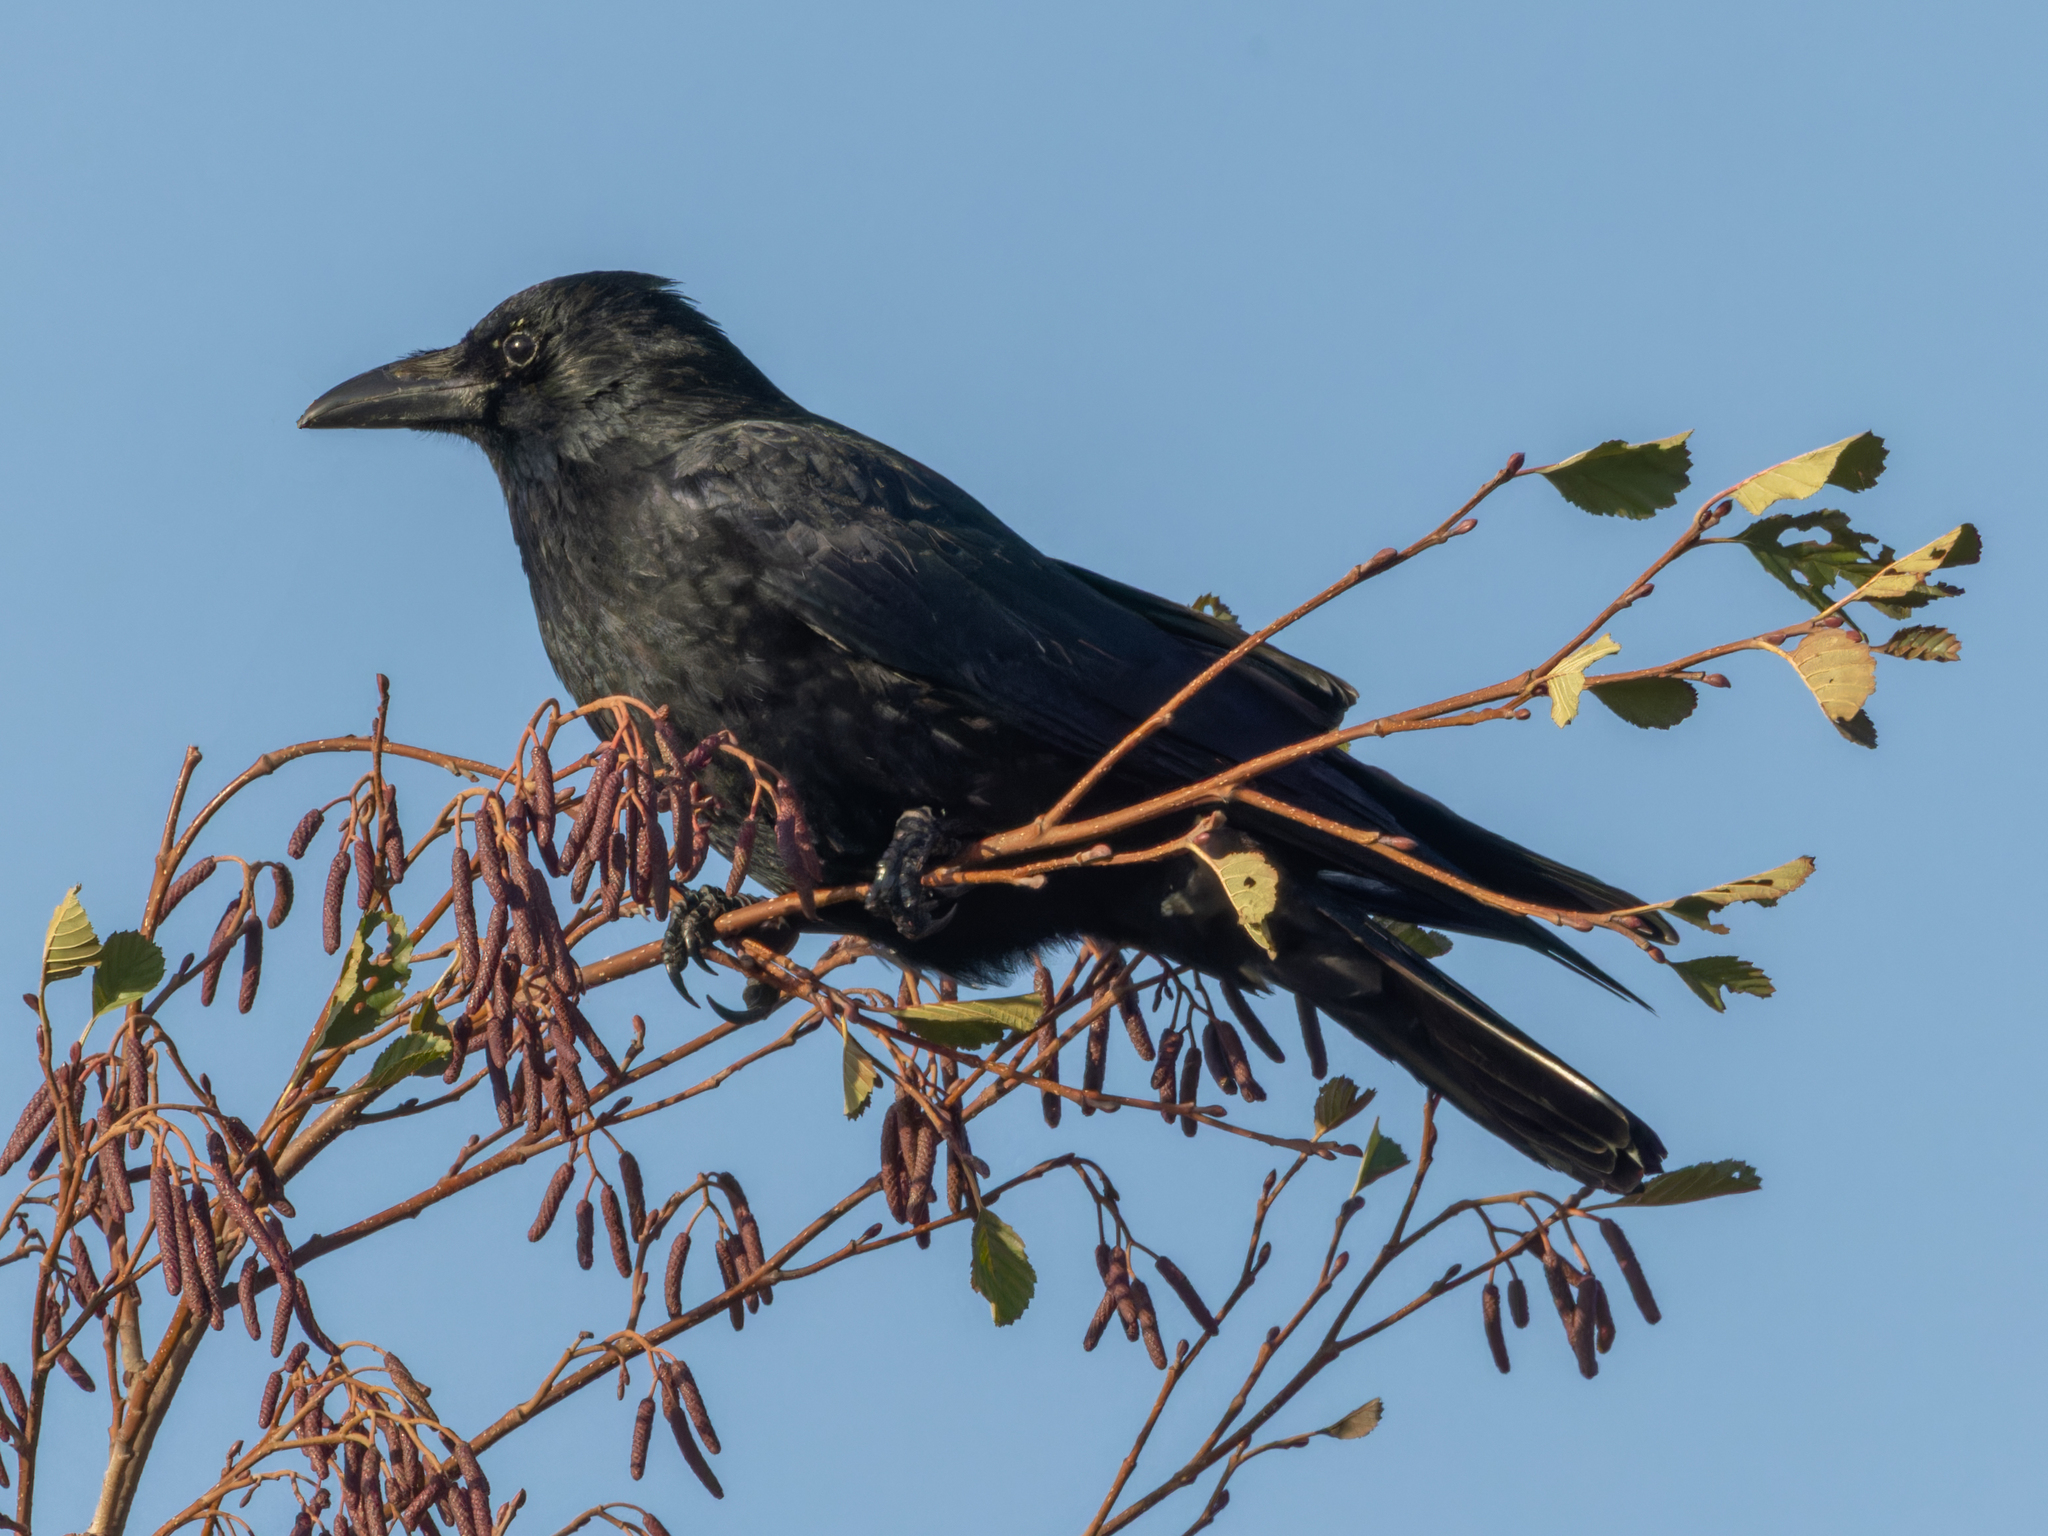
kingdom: Animalia
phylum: Chordata
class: Aves
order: Passeriformes
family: Corvidae
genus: Corvus
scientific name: Corvus corone
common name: Carrion crow
